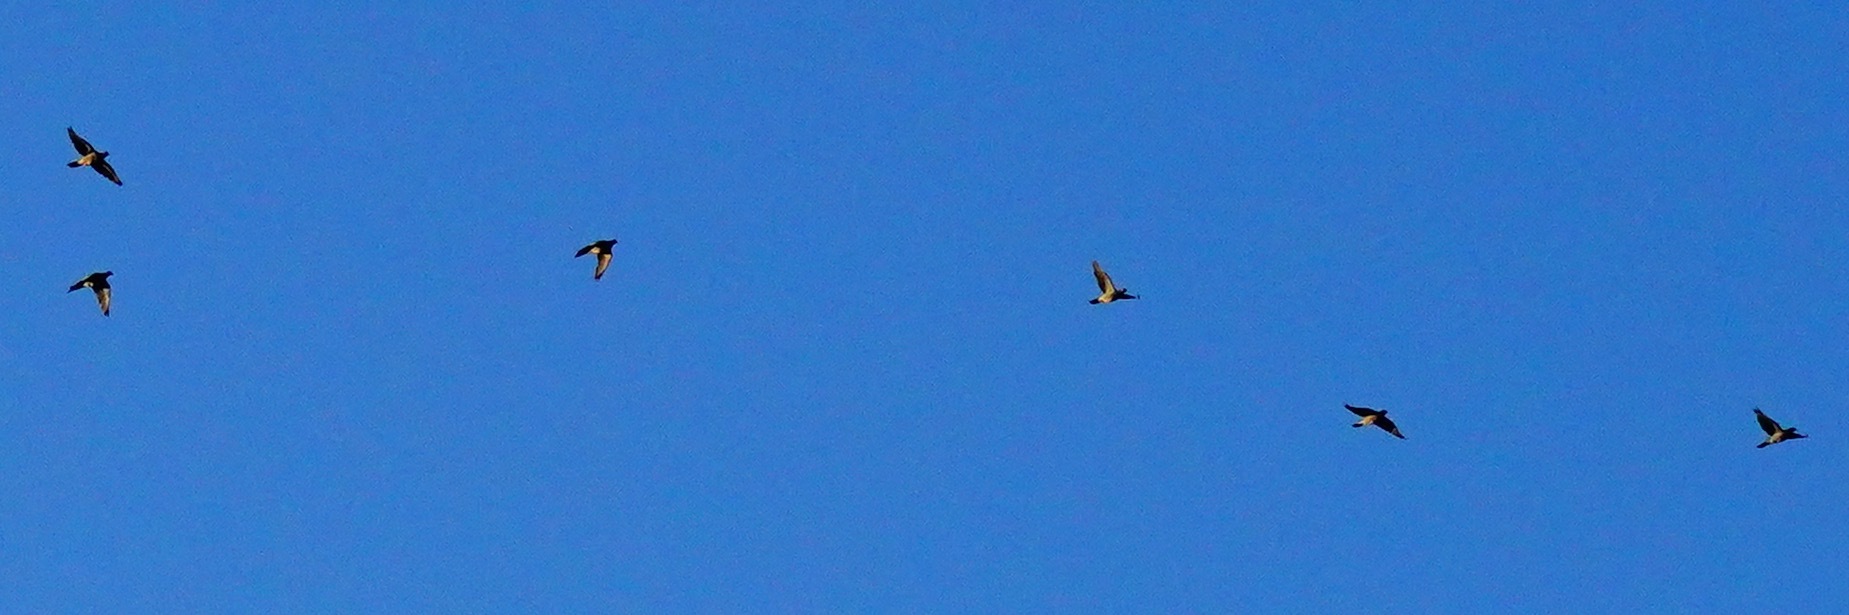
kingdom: Animalia
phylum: Chordata
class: Aves
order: Columbiformes
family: Columbidae
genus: Patagioenas
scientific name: Patagioenas fasciata
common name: Band-tailed pigeon
